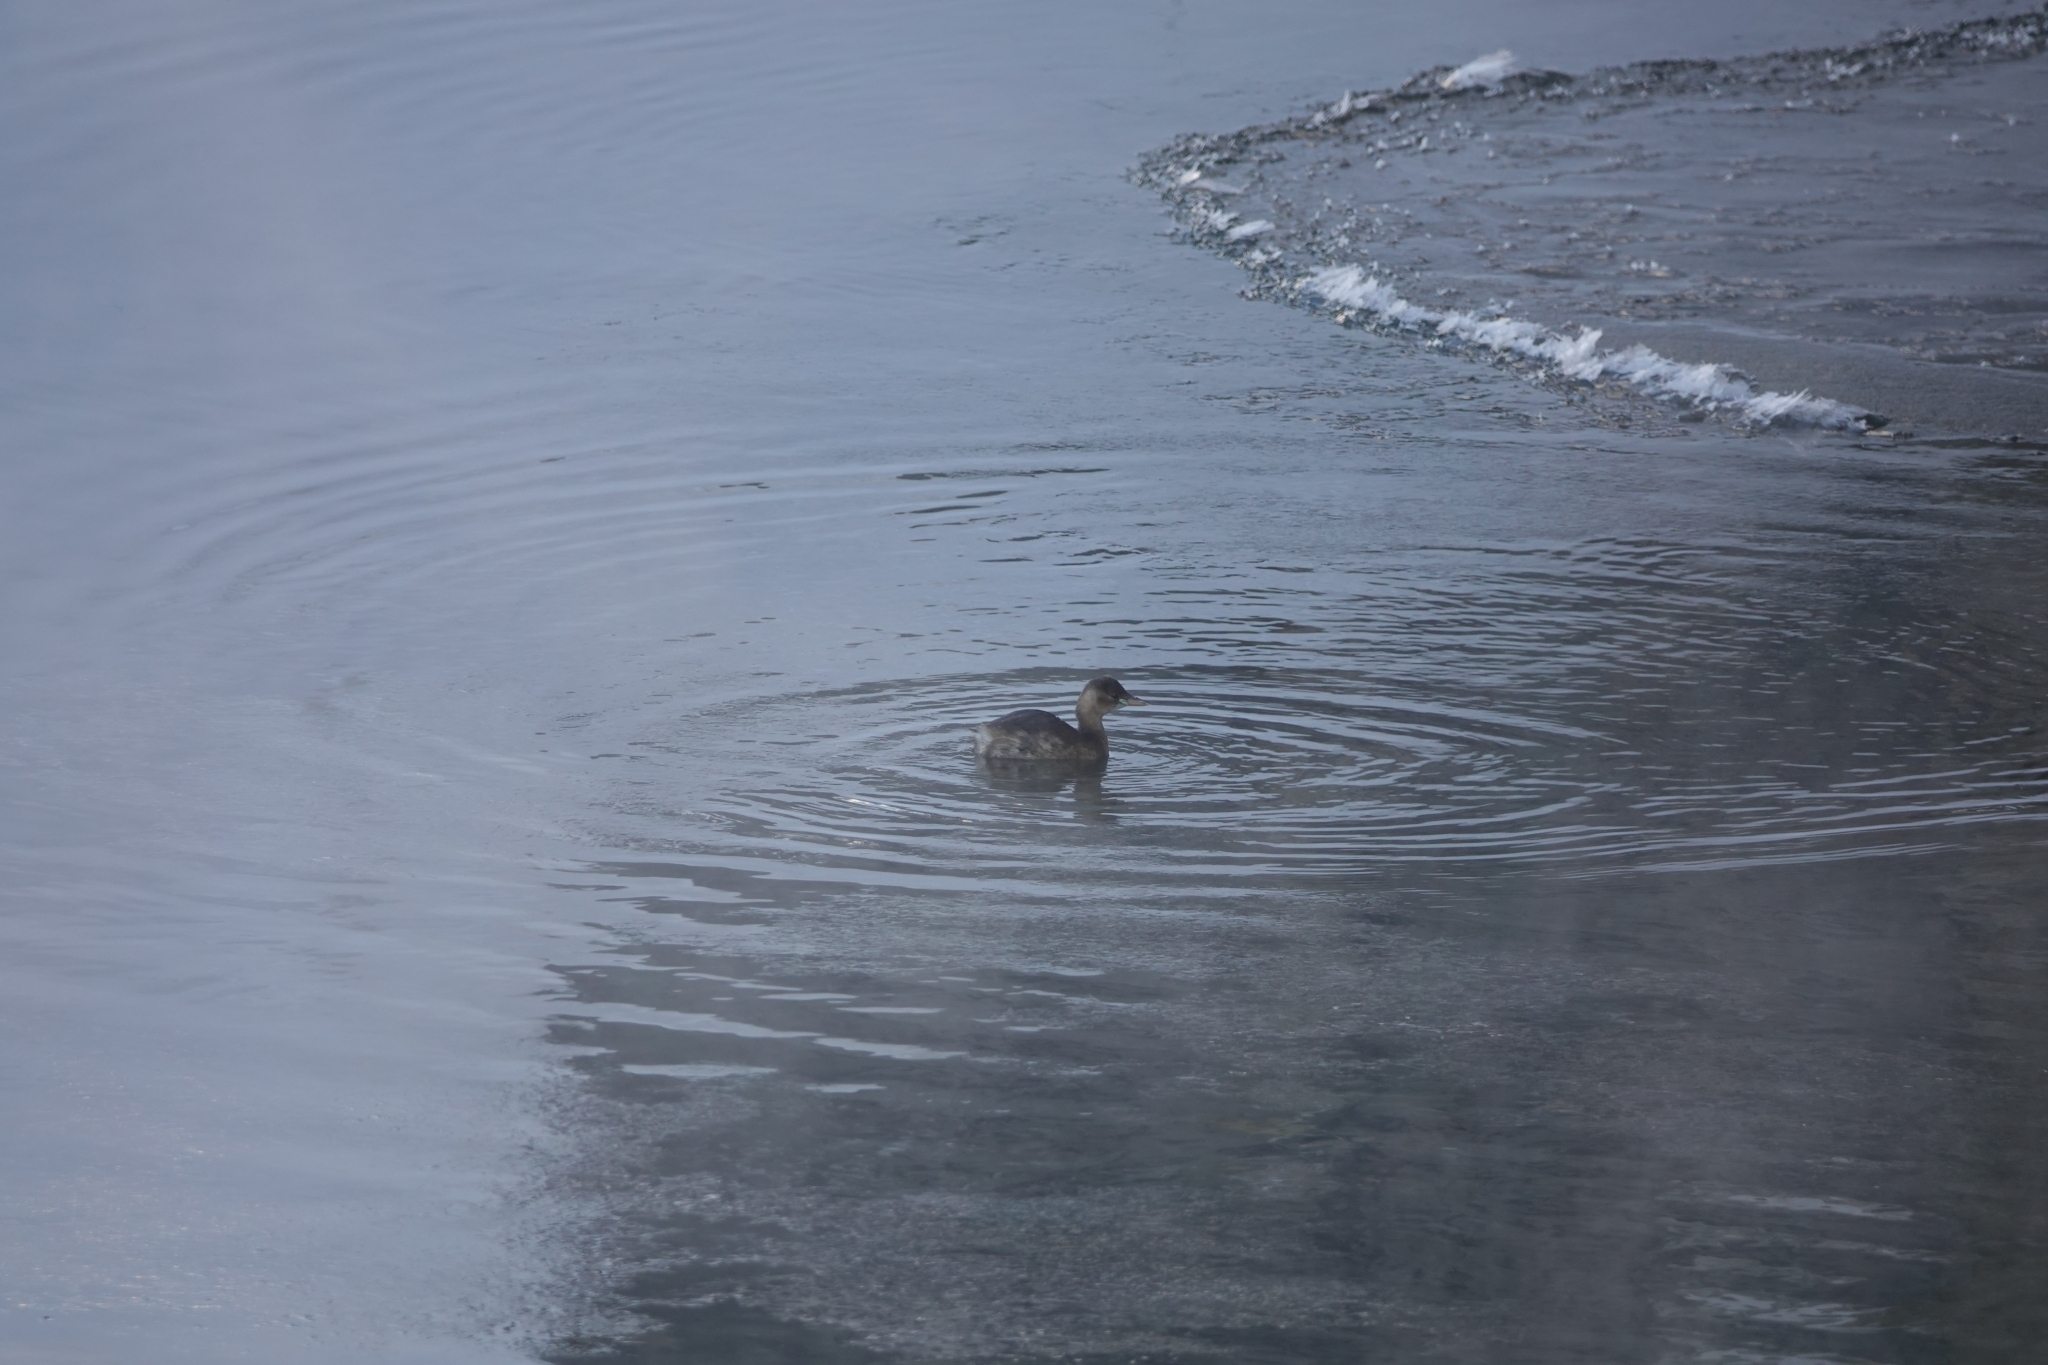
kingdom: Animalia
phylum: Chordata
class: Aves
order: Podicipediformes
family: Podicipedidae
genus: Tachybaptus
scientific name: Tachybaptus ruficollis
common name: Little grebe
